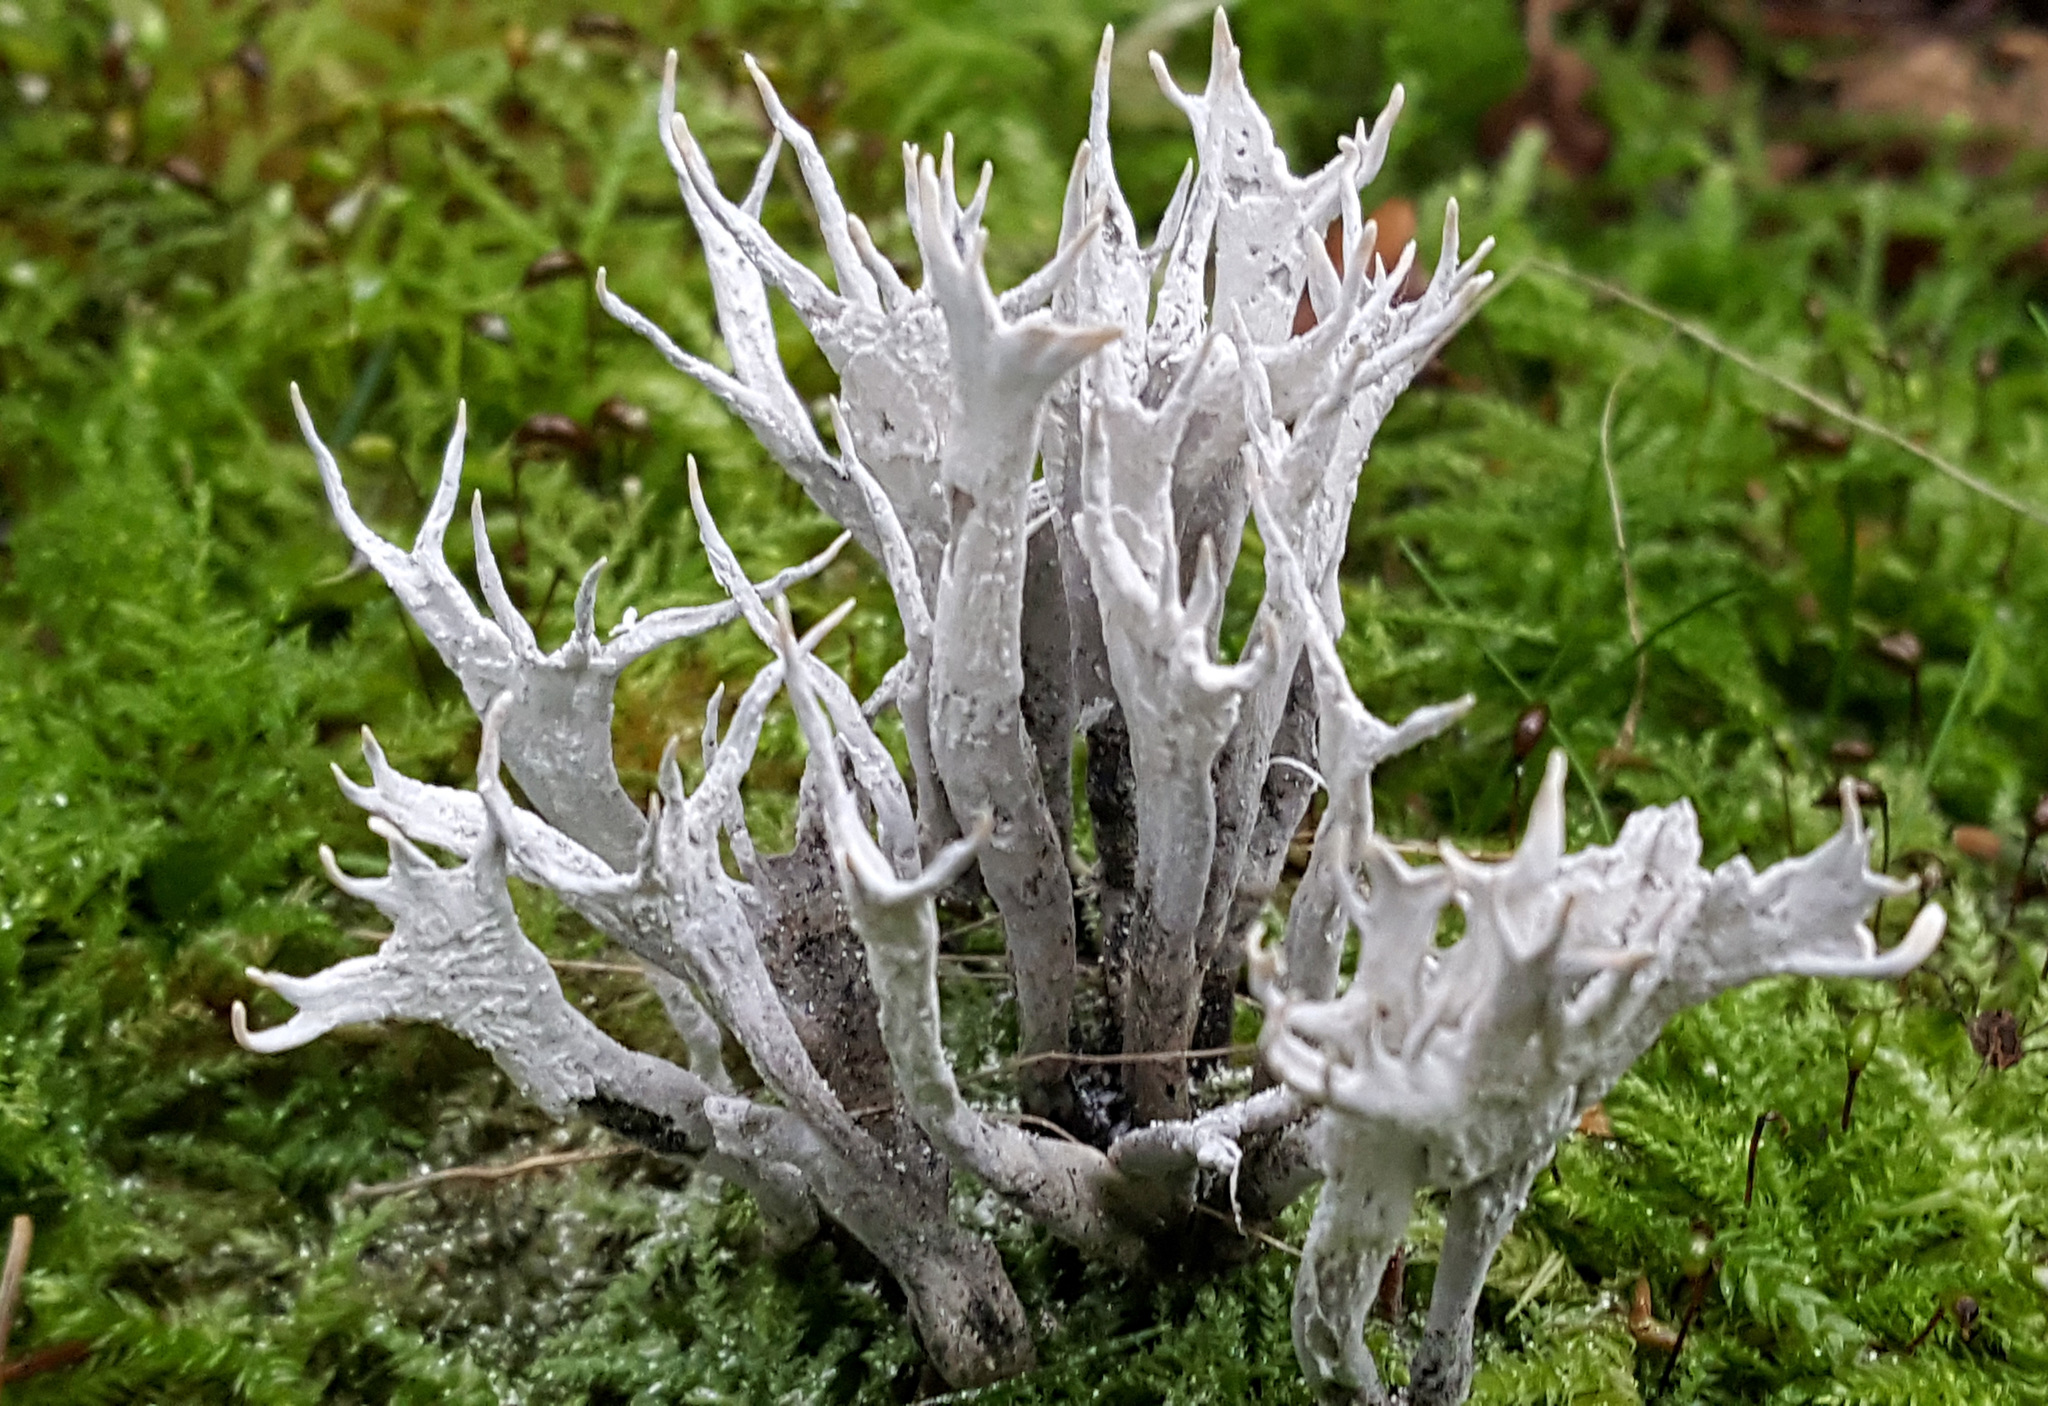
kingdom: Fungi
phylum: Ascomycota
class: Sordariomycetes
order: Xylariales
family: Xylariaceae
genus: Xylaria
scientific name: Xylaria hypoxylon
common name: Candle-snuff fungus
